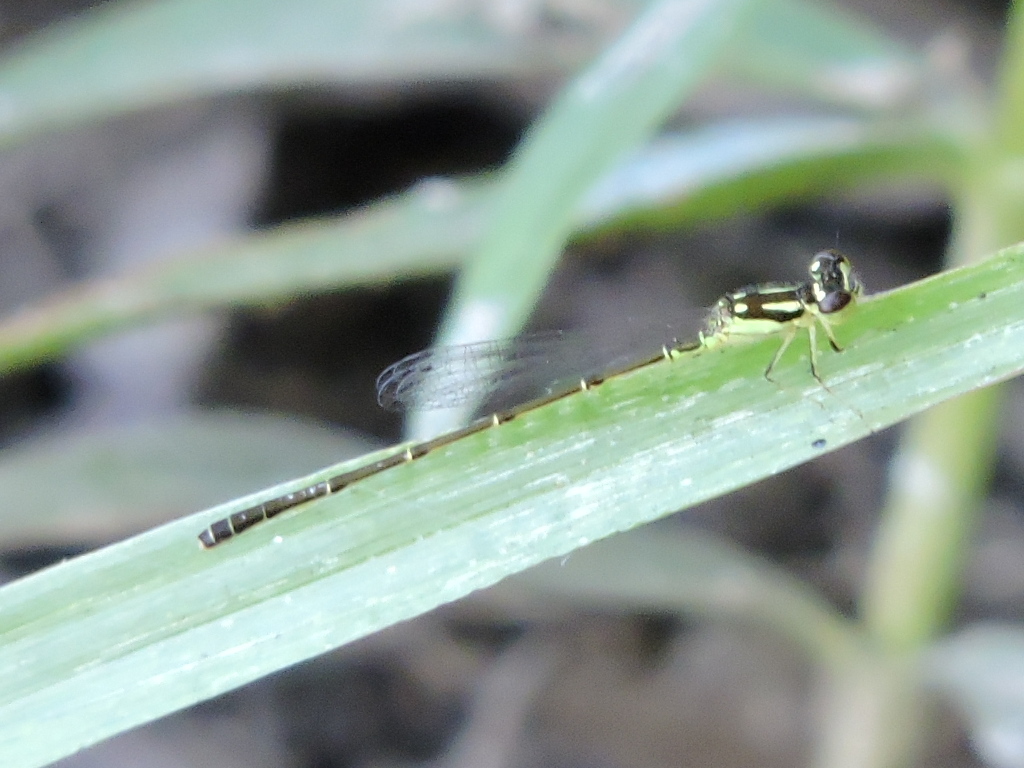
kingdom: Animalia
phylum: Arthropoda
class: Insecta
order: Odonata
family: Coenagrionidae
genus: Ischnura
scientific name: Ischnura posita
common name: Fragile forktail
